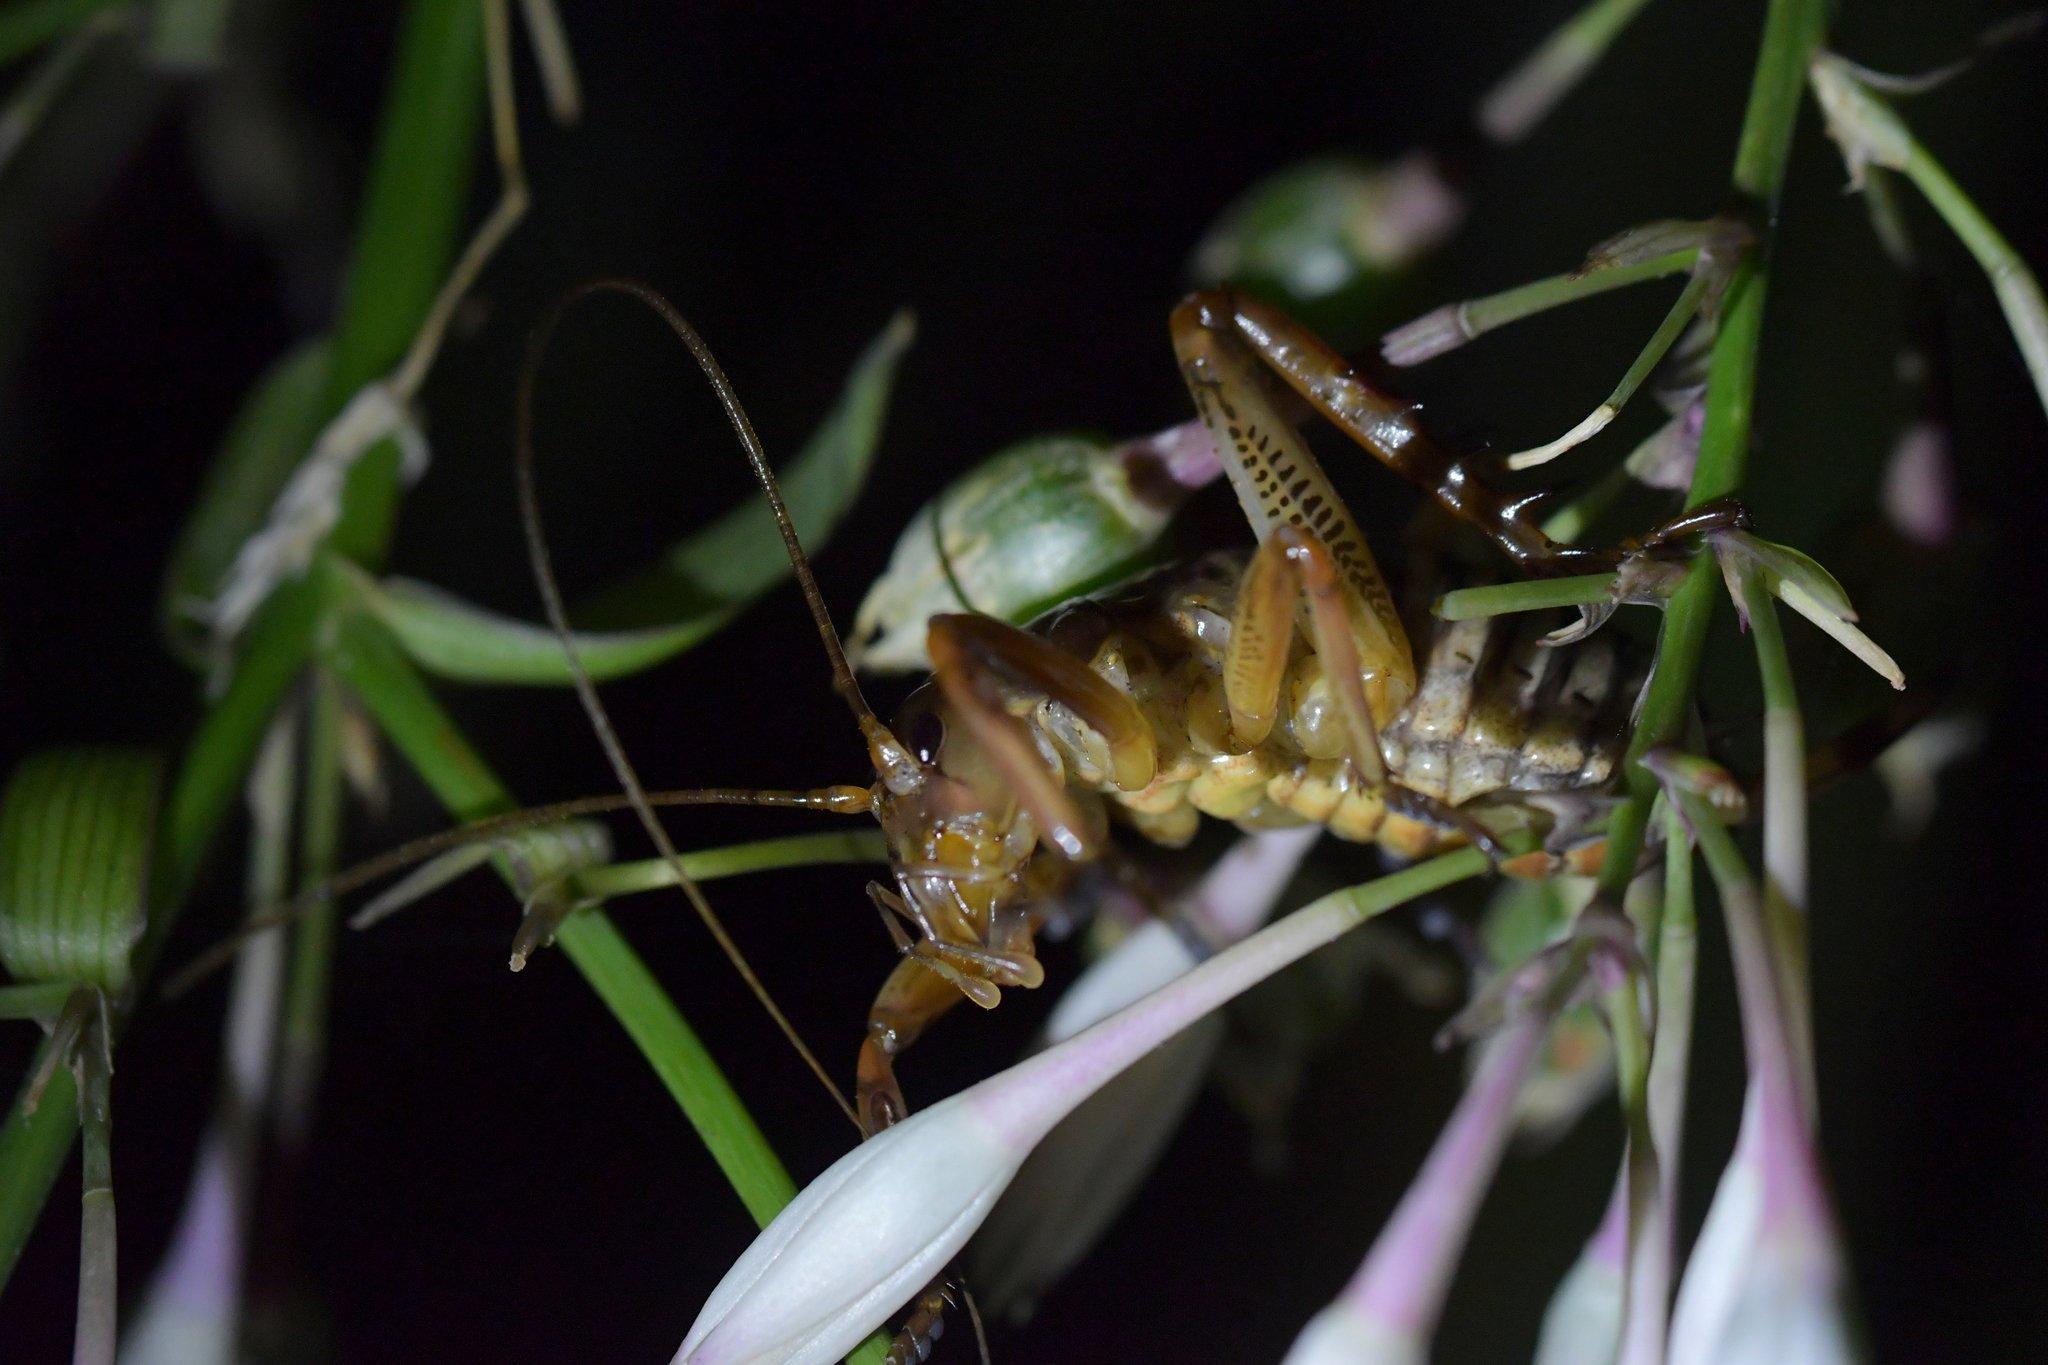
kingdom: Animalia
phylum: Arthropoda
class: Insecta
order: Orthoptera
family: Anostostomatidae
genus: Hemideina
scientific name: Hemideina crassidens
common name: Wellington tree weta
